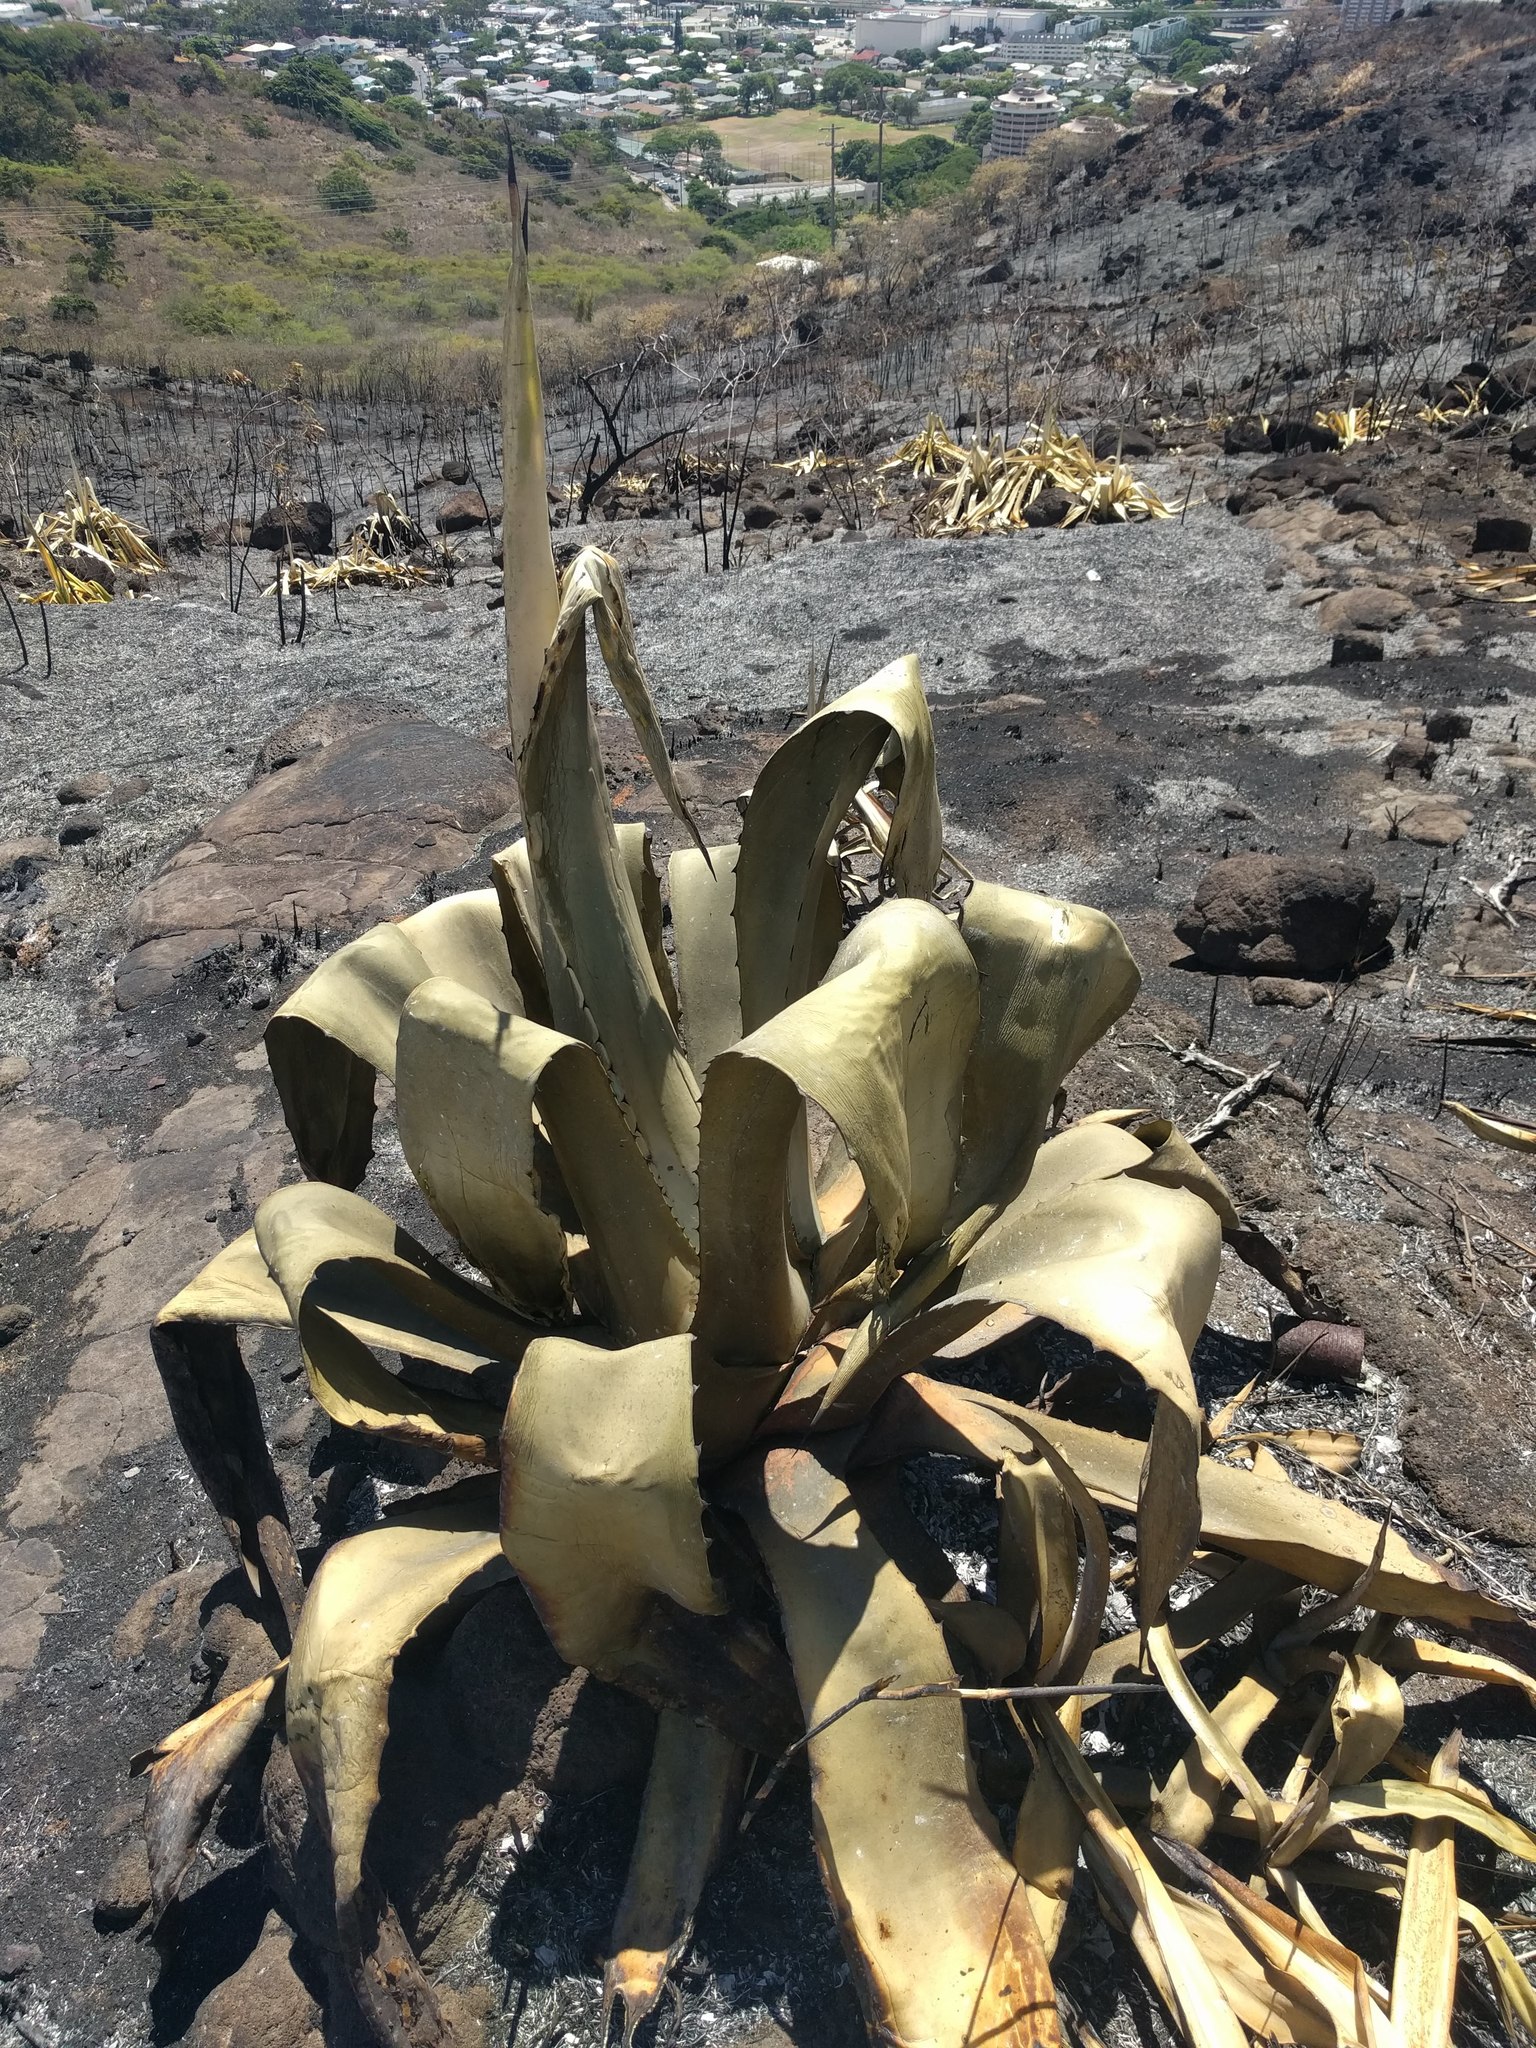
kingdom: Plantae
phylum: Tracheophyta
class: Liliopsida
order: Asparagales
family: Asparagaceae
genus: Furcraea
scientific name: Furcraea foetida
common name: Mauritius hemp
